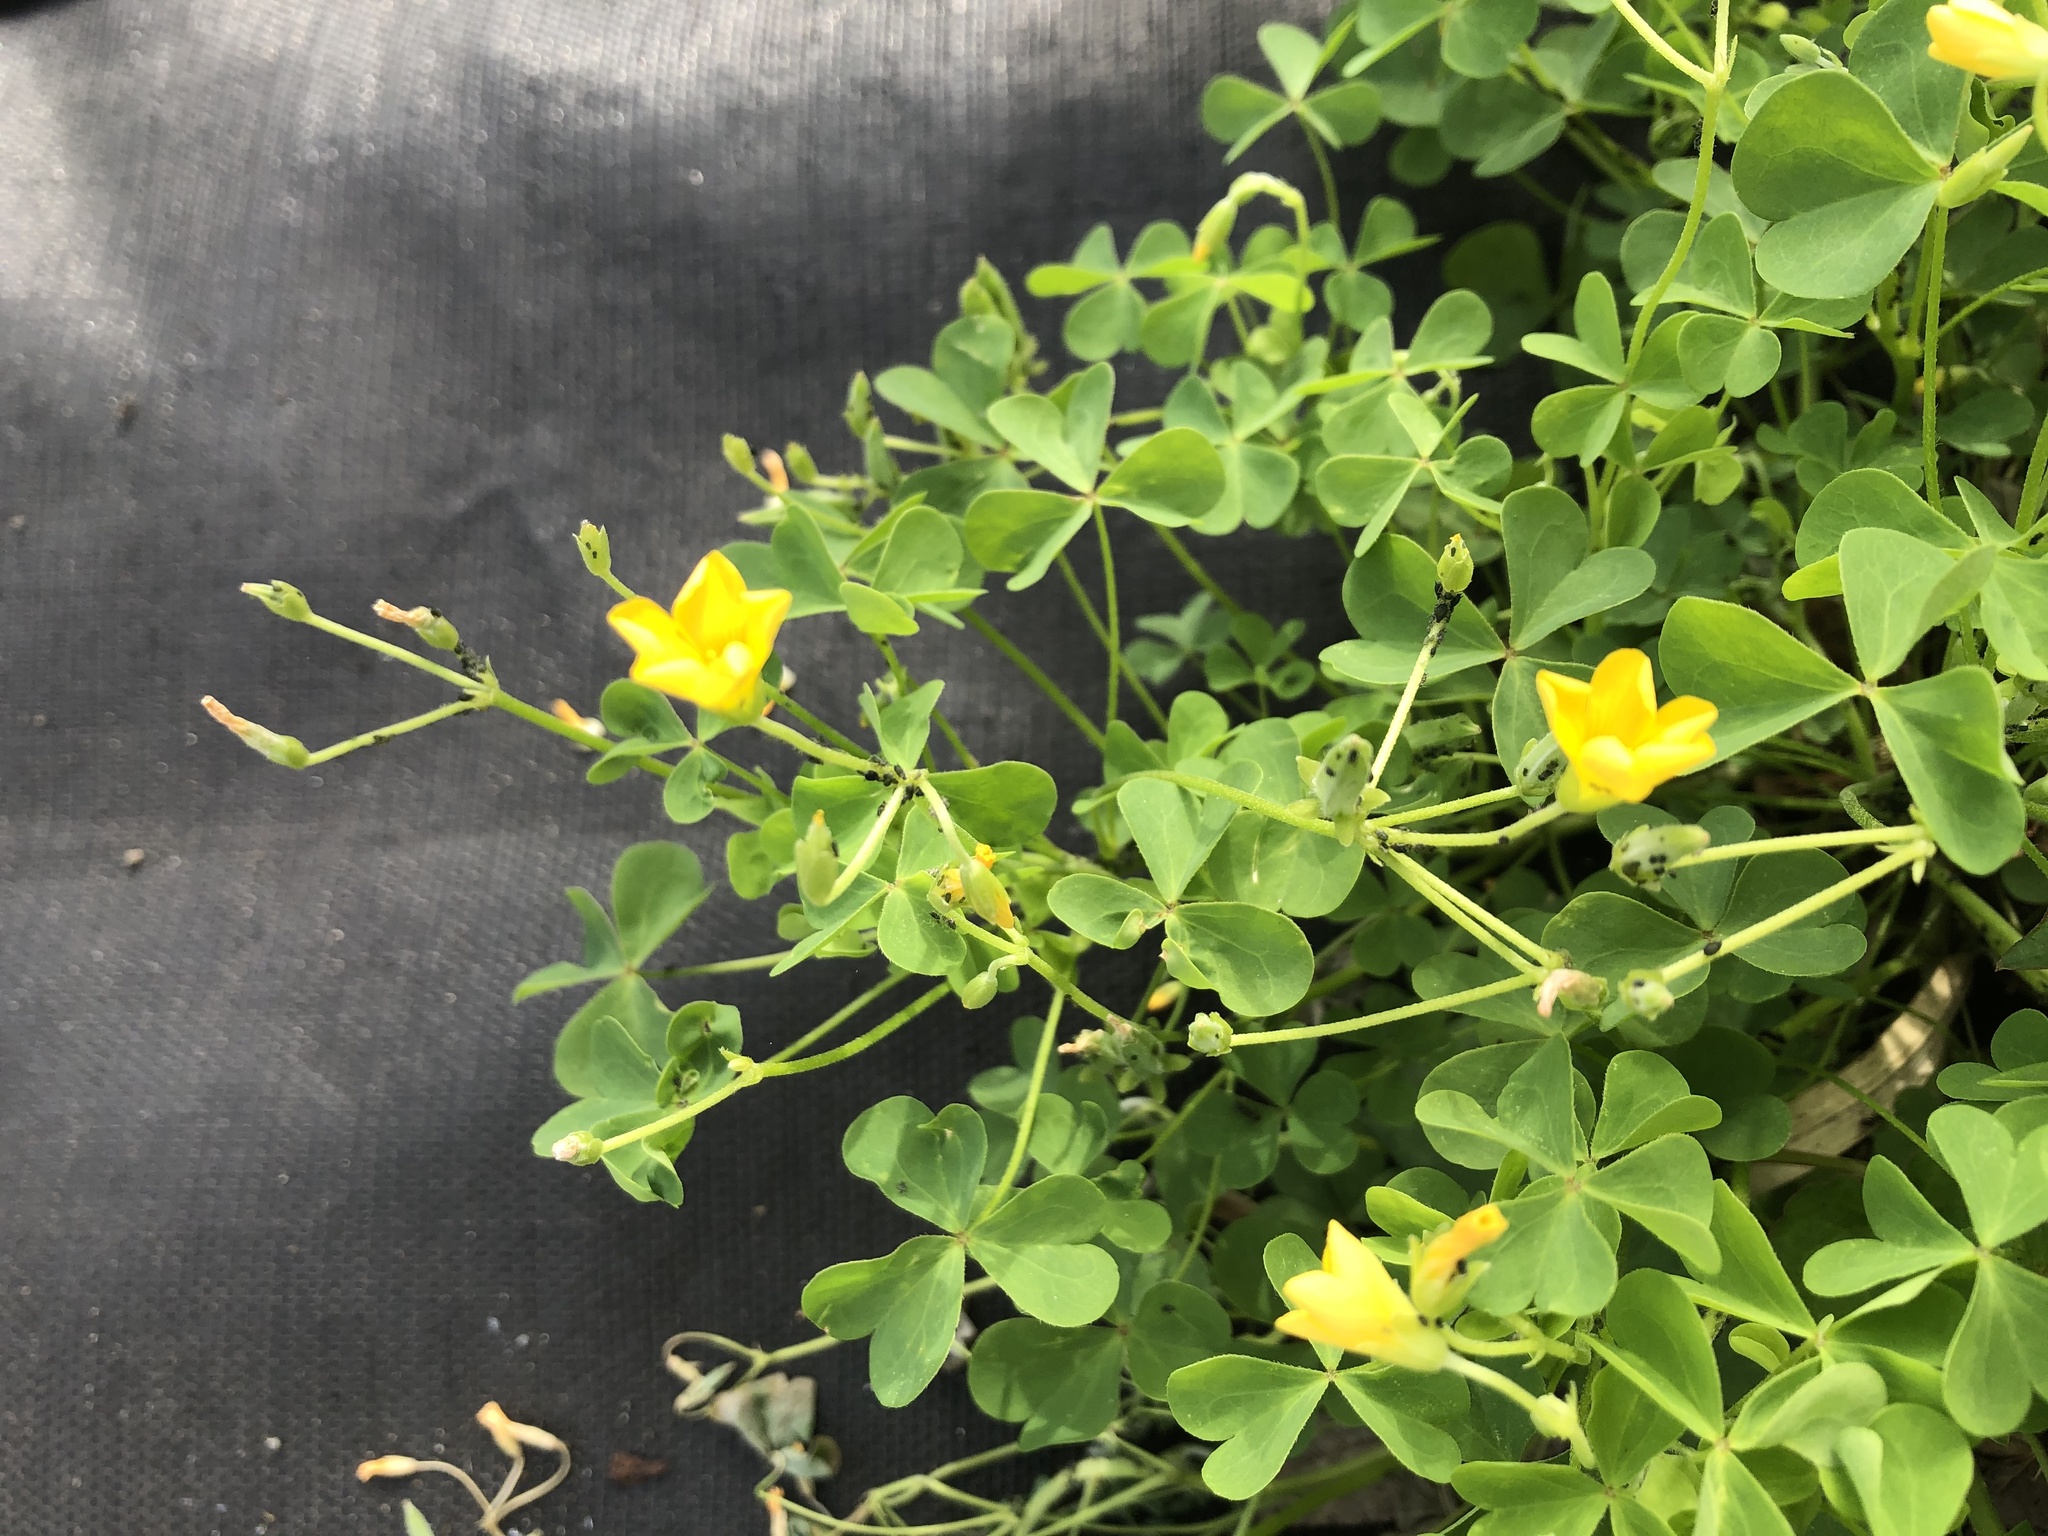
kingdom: Plantae
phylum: Tracheophyta
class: Magnoliopsida
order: Oxalidales
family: Oxalidaceae
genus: Oxalis
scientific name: Oxalis dillenii
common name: Sussex yellow-sorrel
